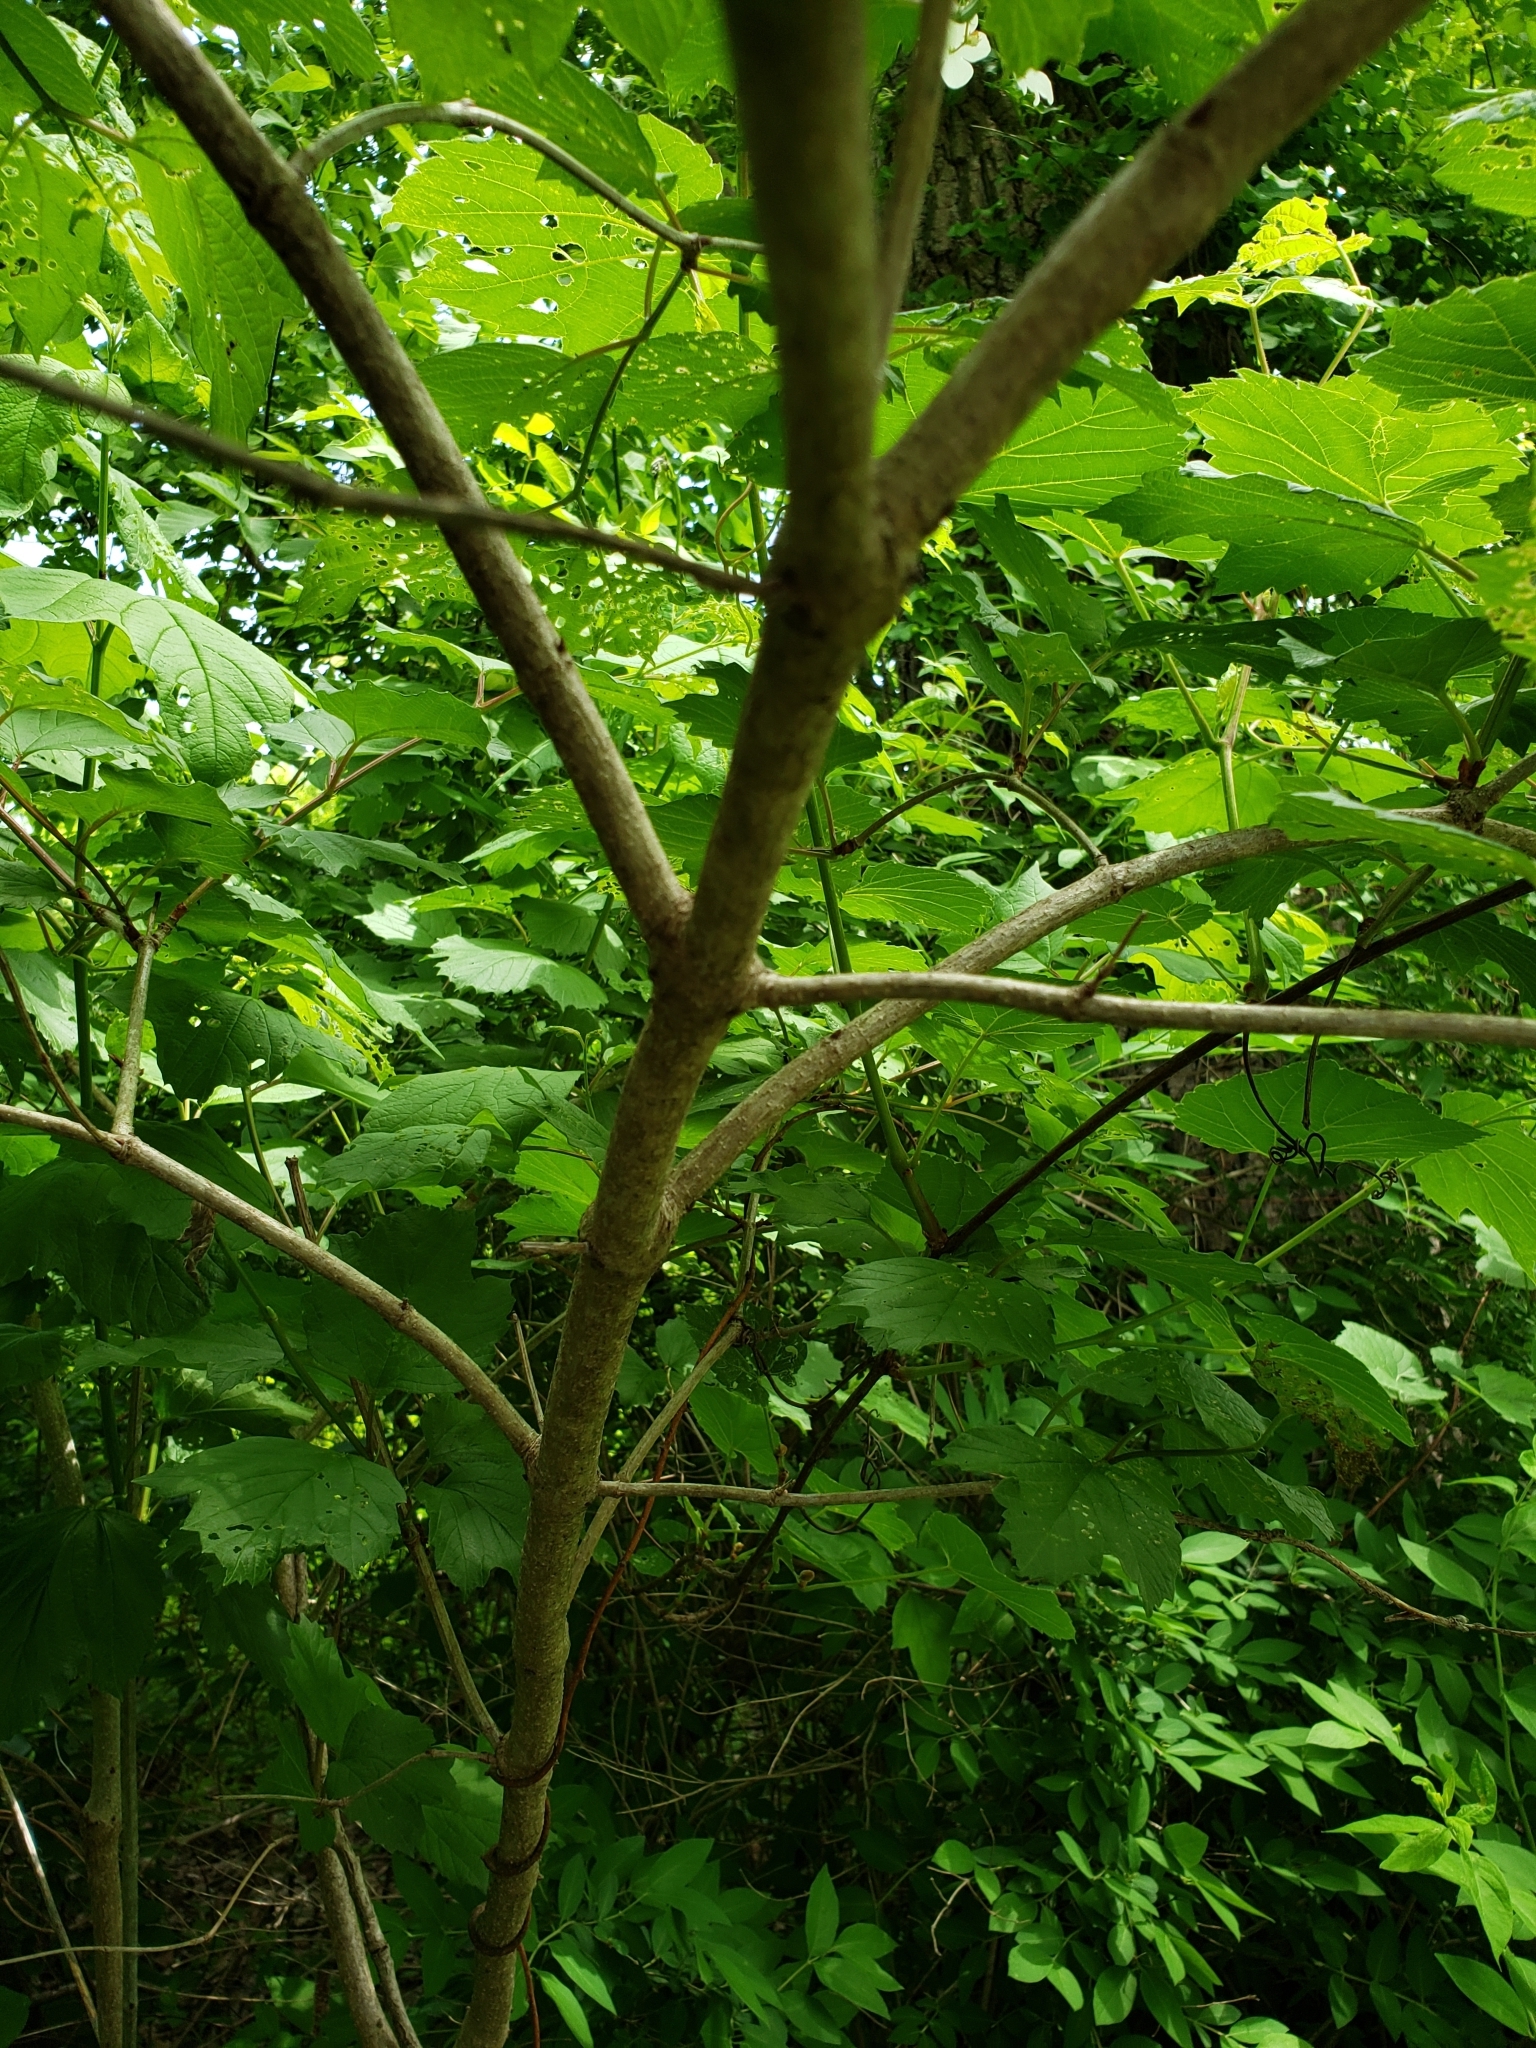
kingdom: Plantae
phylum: Tracheophyta
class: Magnoliopsida
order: Dipsacales
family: Viburnaceae
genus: Viburnum
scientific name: Viburnum trilobum
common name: American cranberrybush
